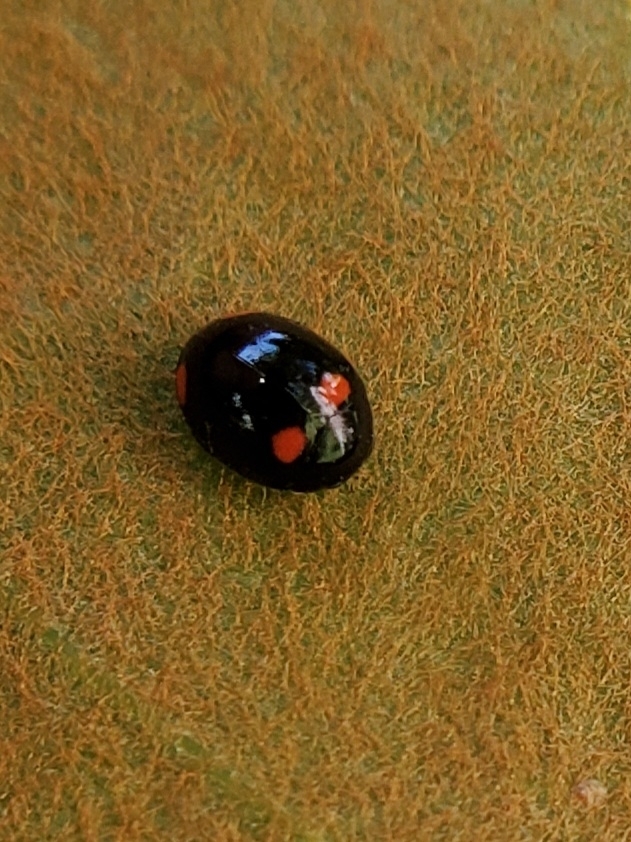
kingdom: Animalia
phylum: Arthropoda
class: Insecta
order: Coleoptera
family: Coccinellidae
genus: Brachiacantha
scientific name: Brachiacantha quadripunctata
